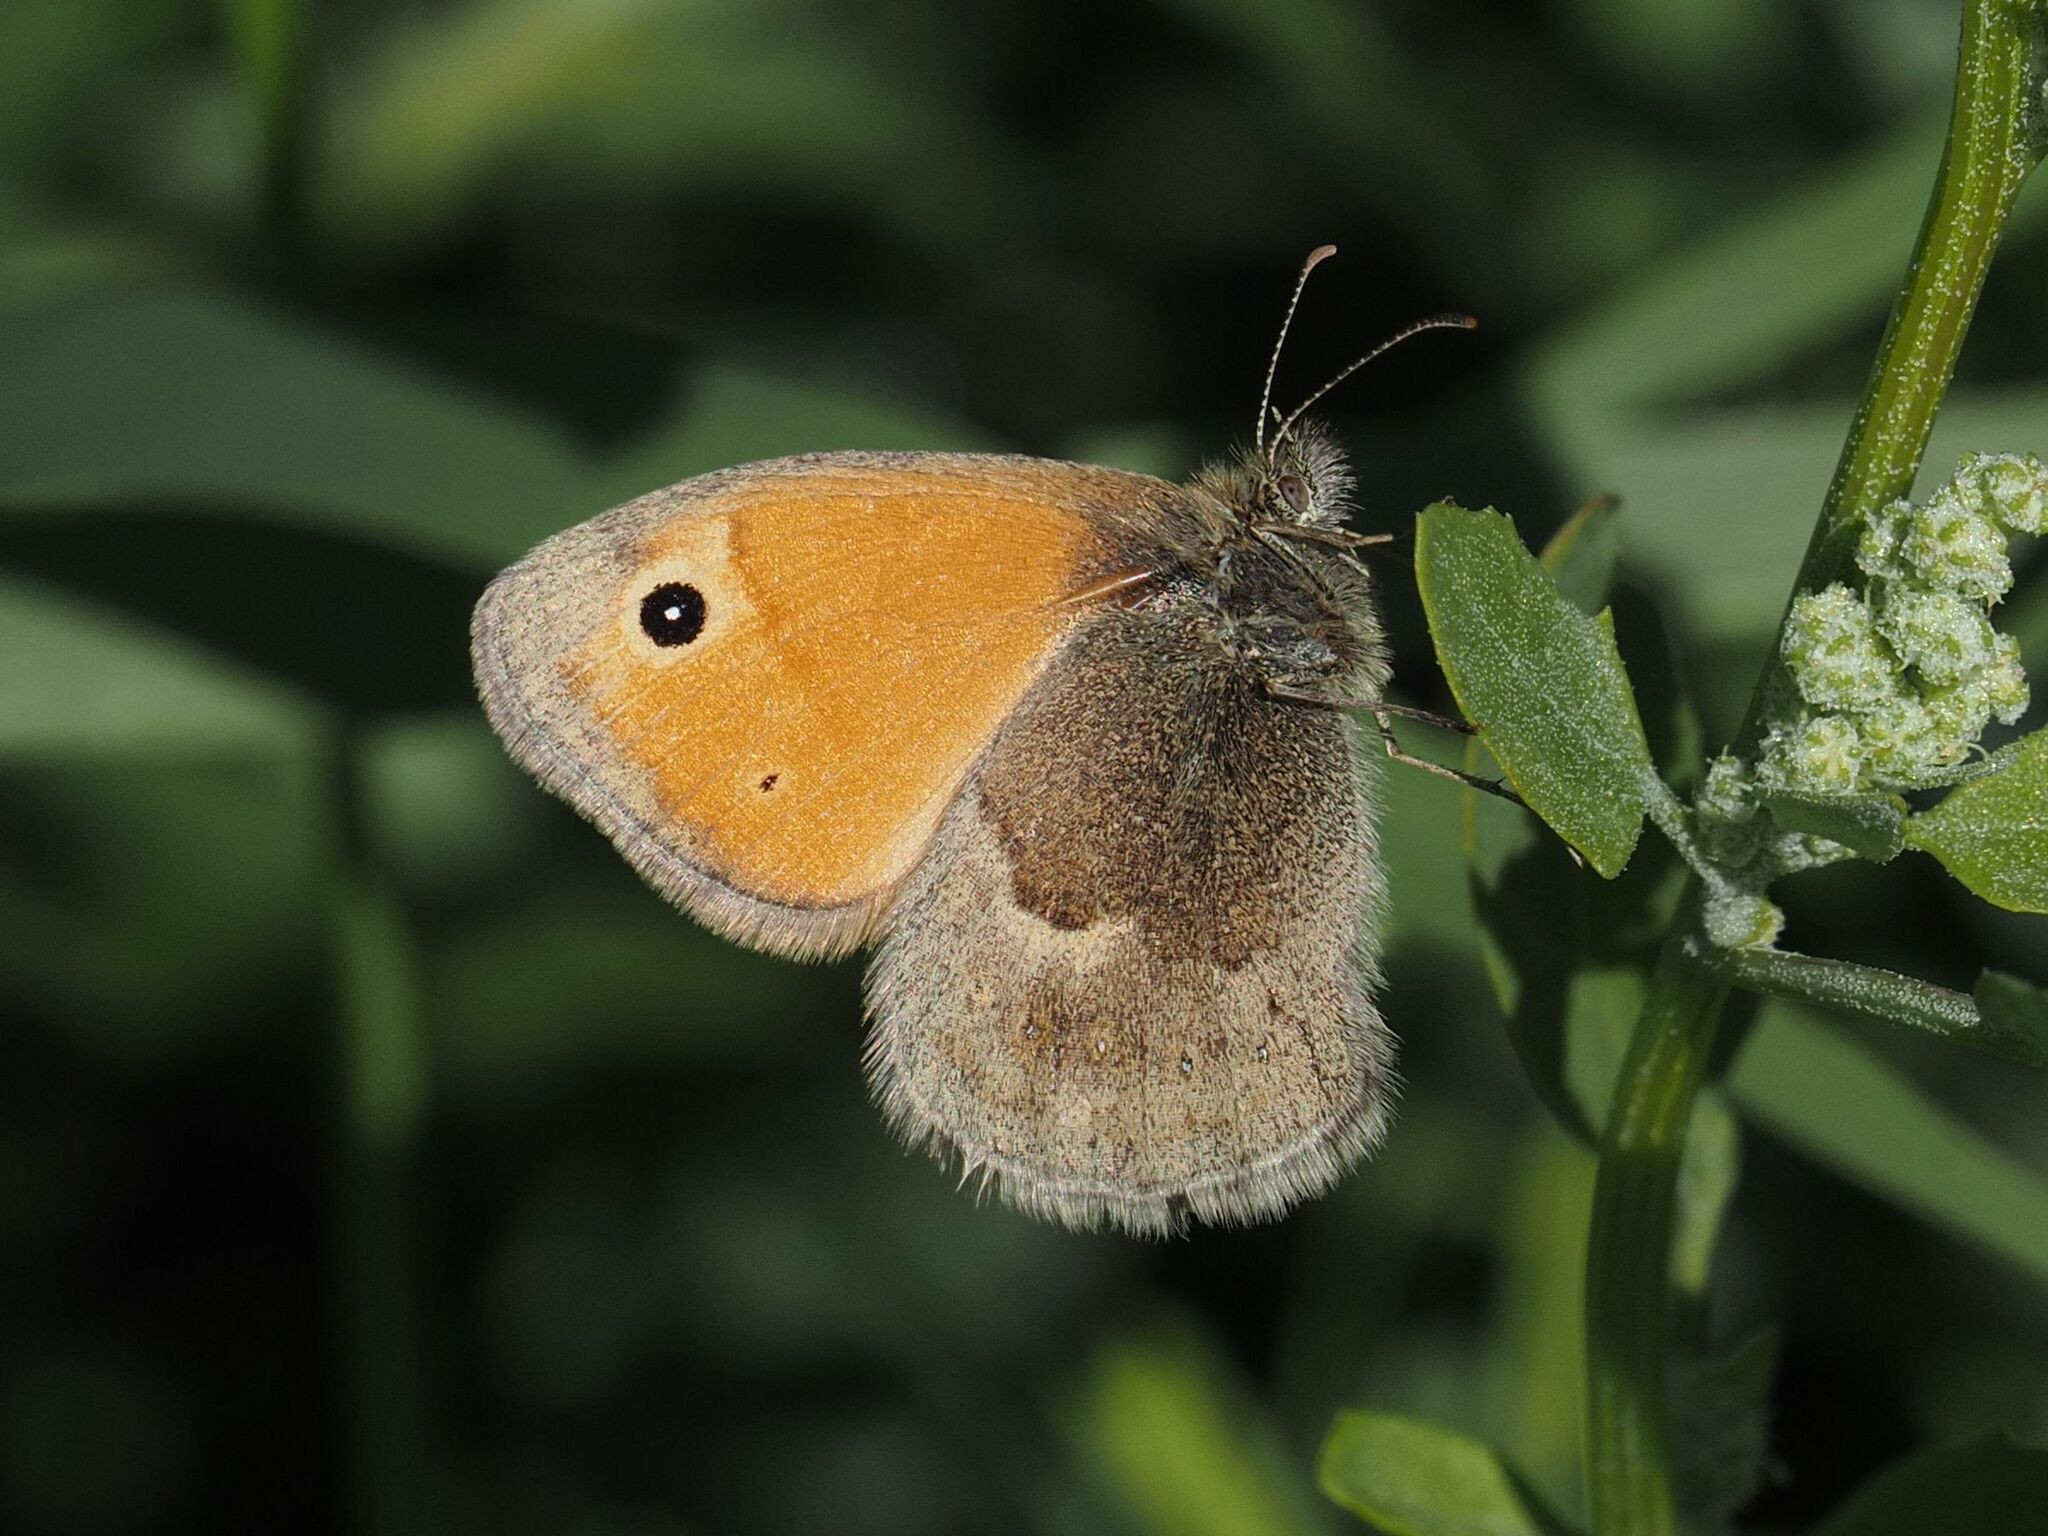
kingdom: Animalia
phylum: Arthropoda
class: Insecta
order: Lepidoptera
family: Nymphalidae
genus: Coenonympha
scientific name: Coenonympha pamphilus
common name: Small heath
